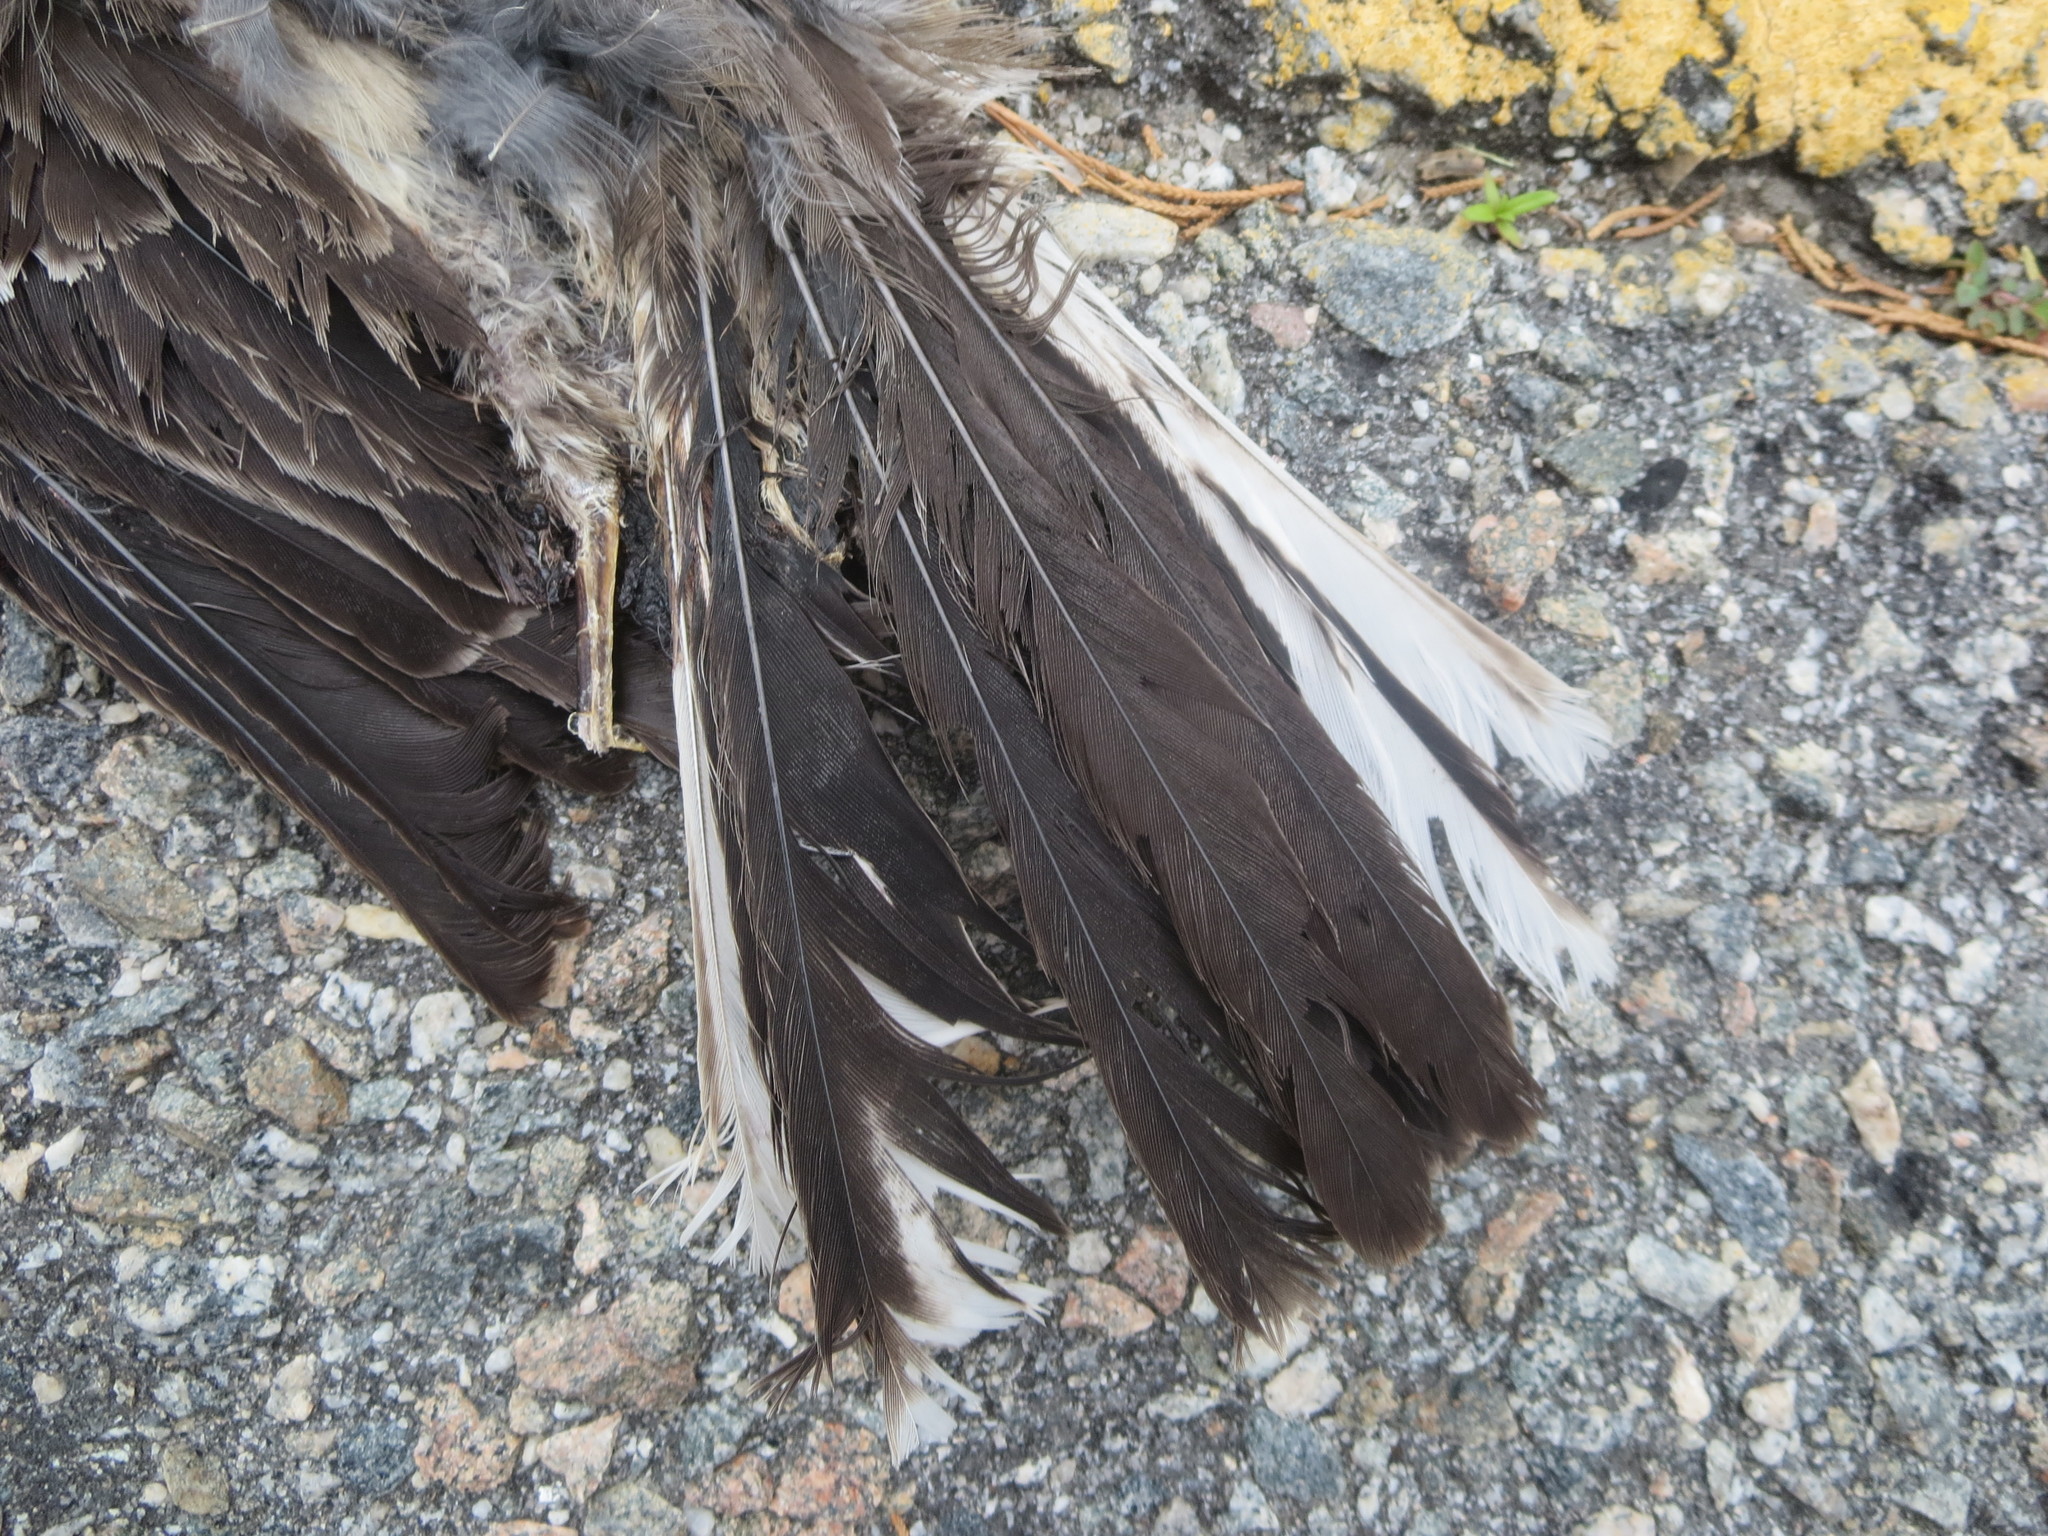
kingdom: Animalia
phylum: Chordata
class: Aves
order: Passeriformes
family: Mimidae
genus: Mimus
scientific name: Mimus polyglottos
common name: Northern mockingbird
